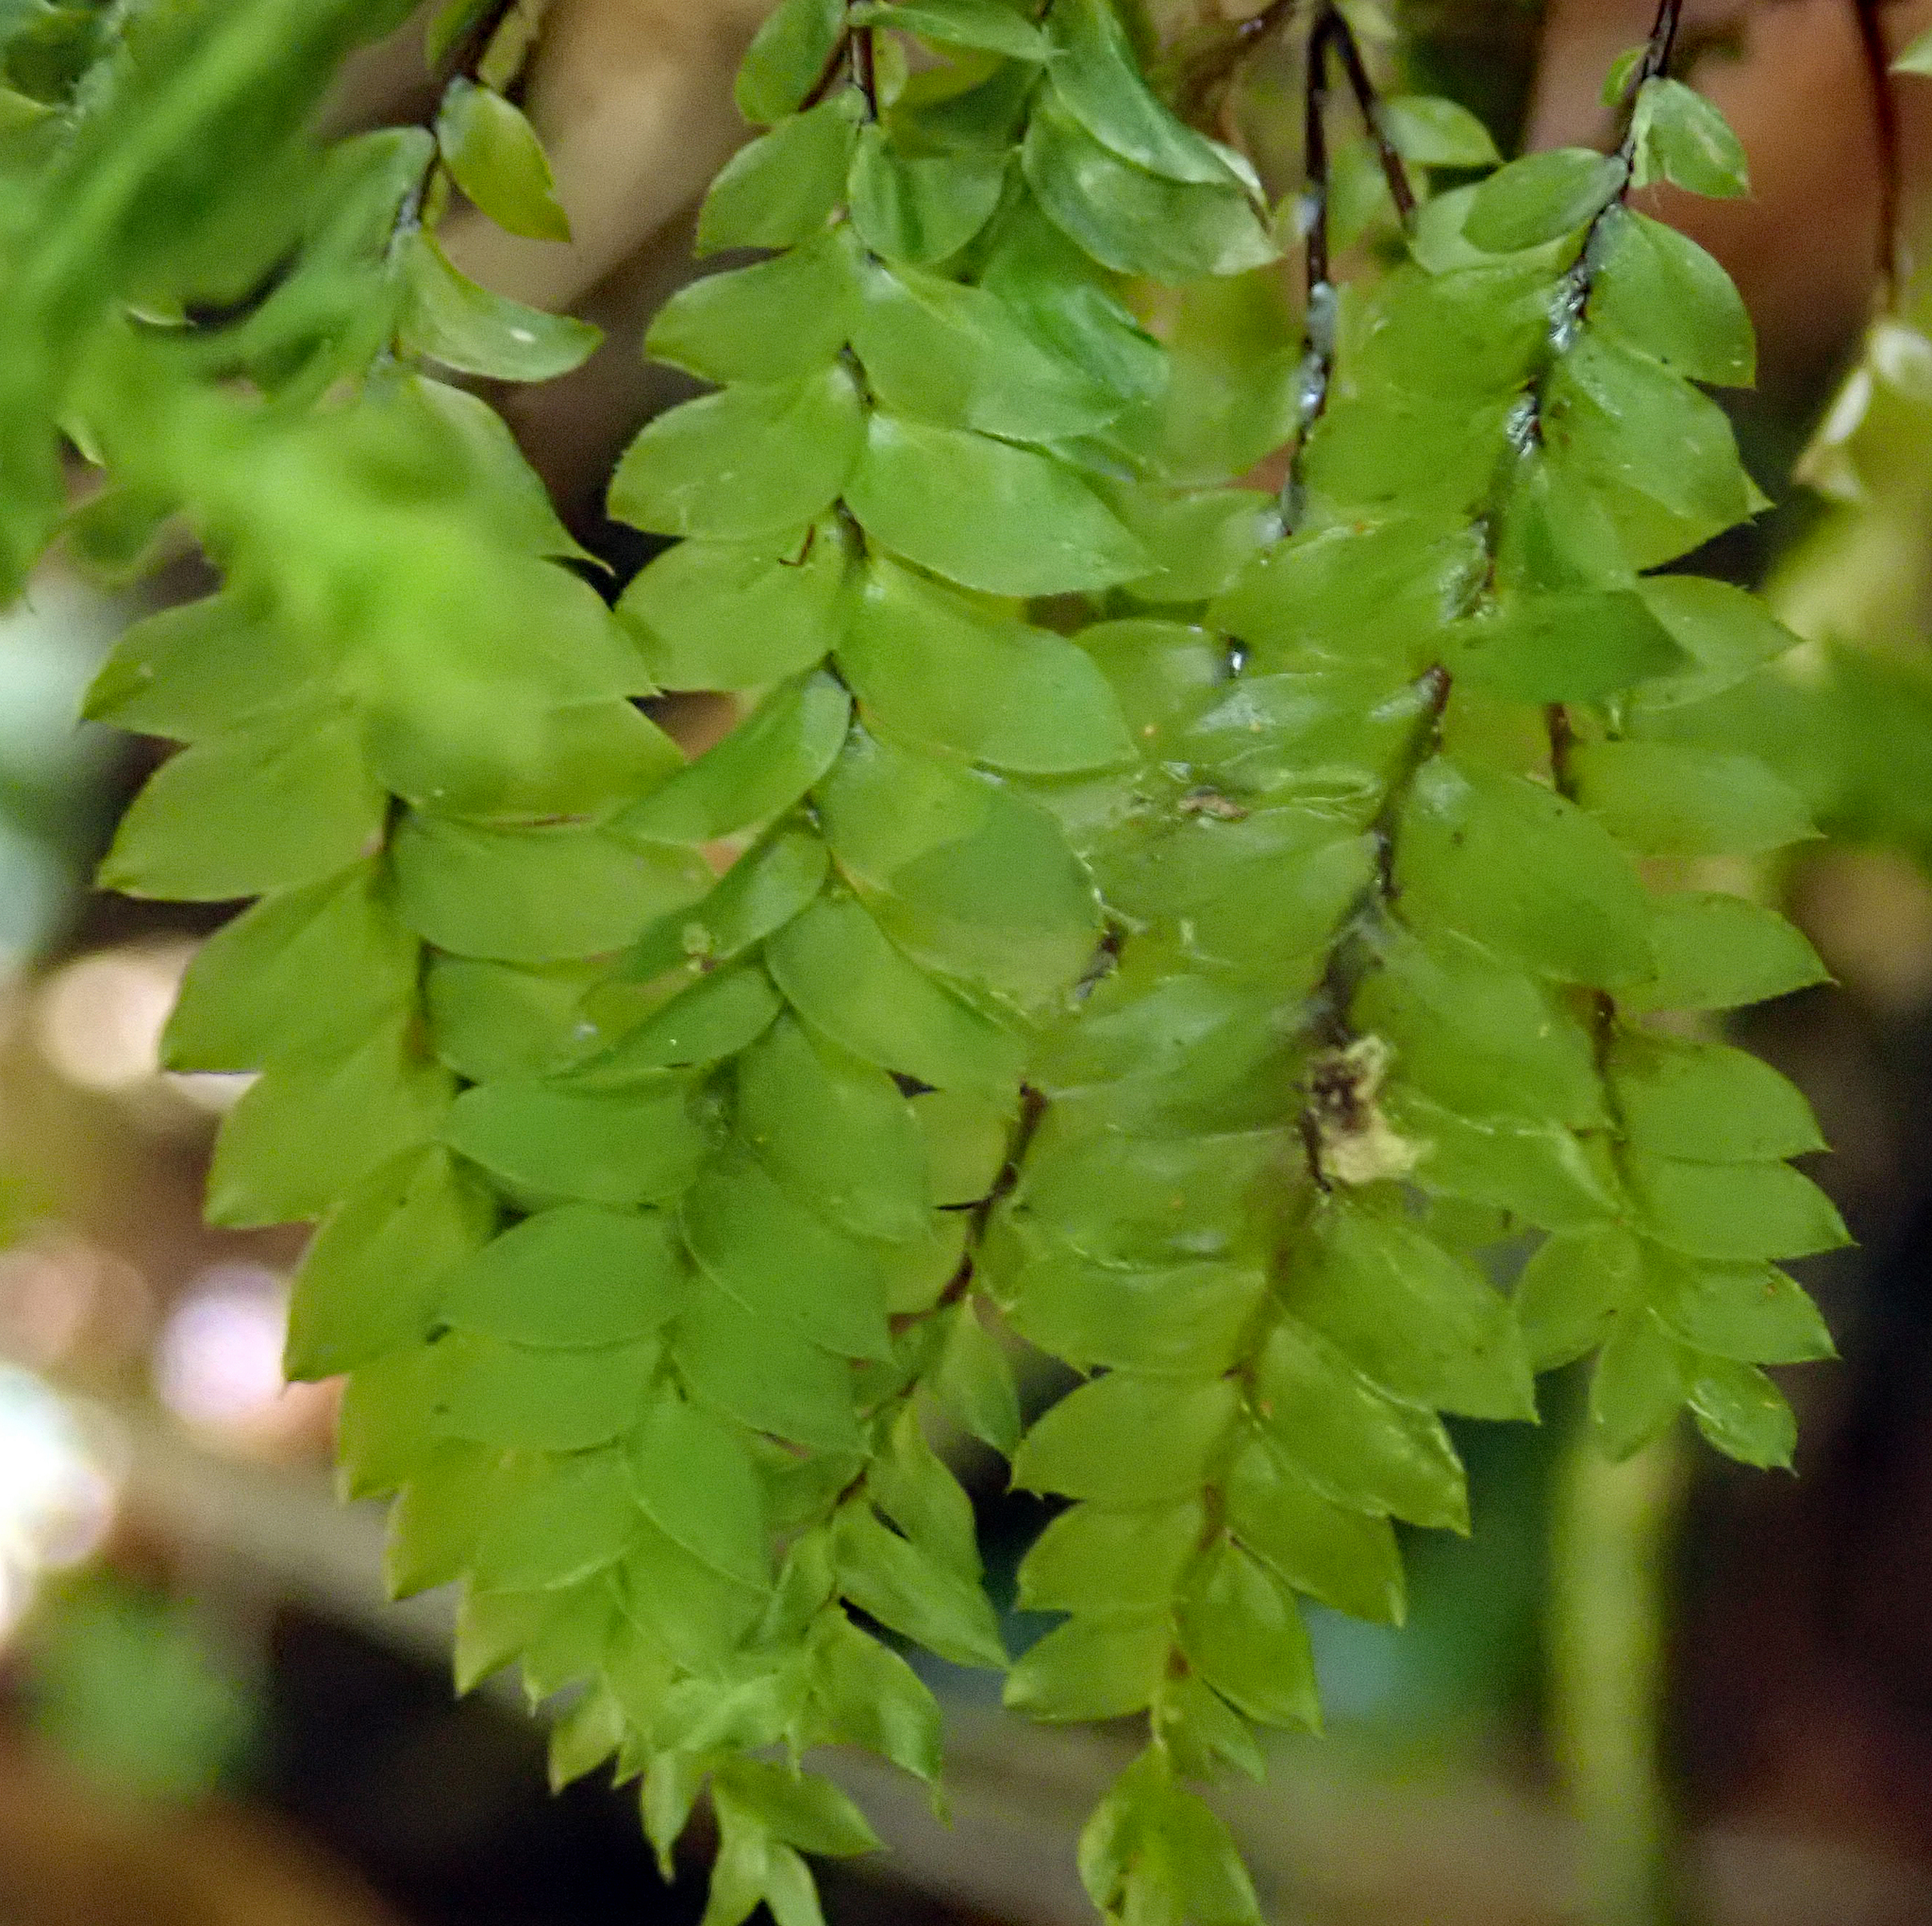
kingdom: Plantae
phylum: Bryophyta
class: Bryopsida
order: Hypopterygiales
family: Hypopterygiaceae
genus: Cyathophorum
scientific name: Cyathophorum bulbosum
